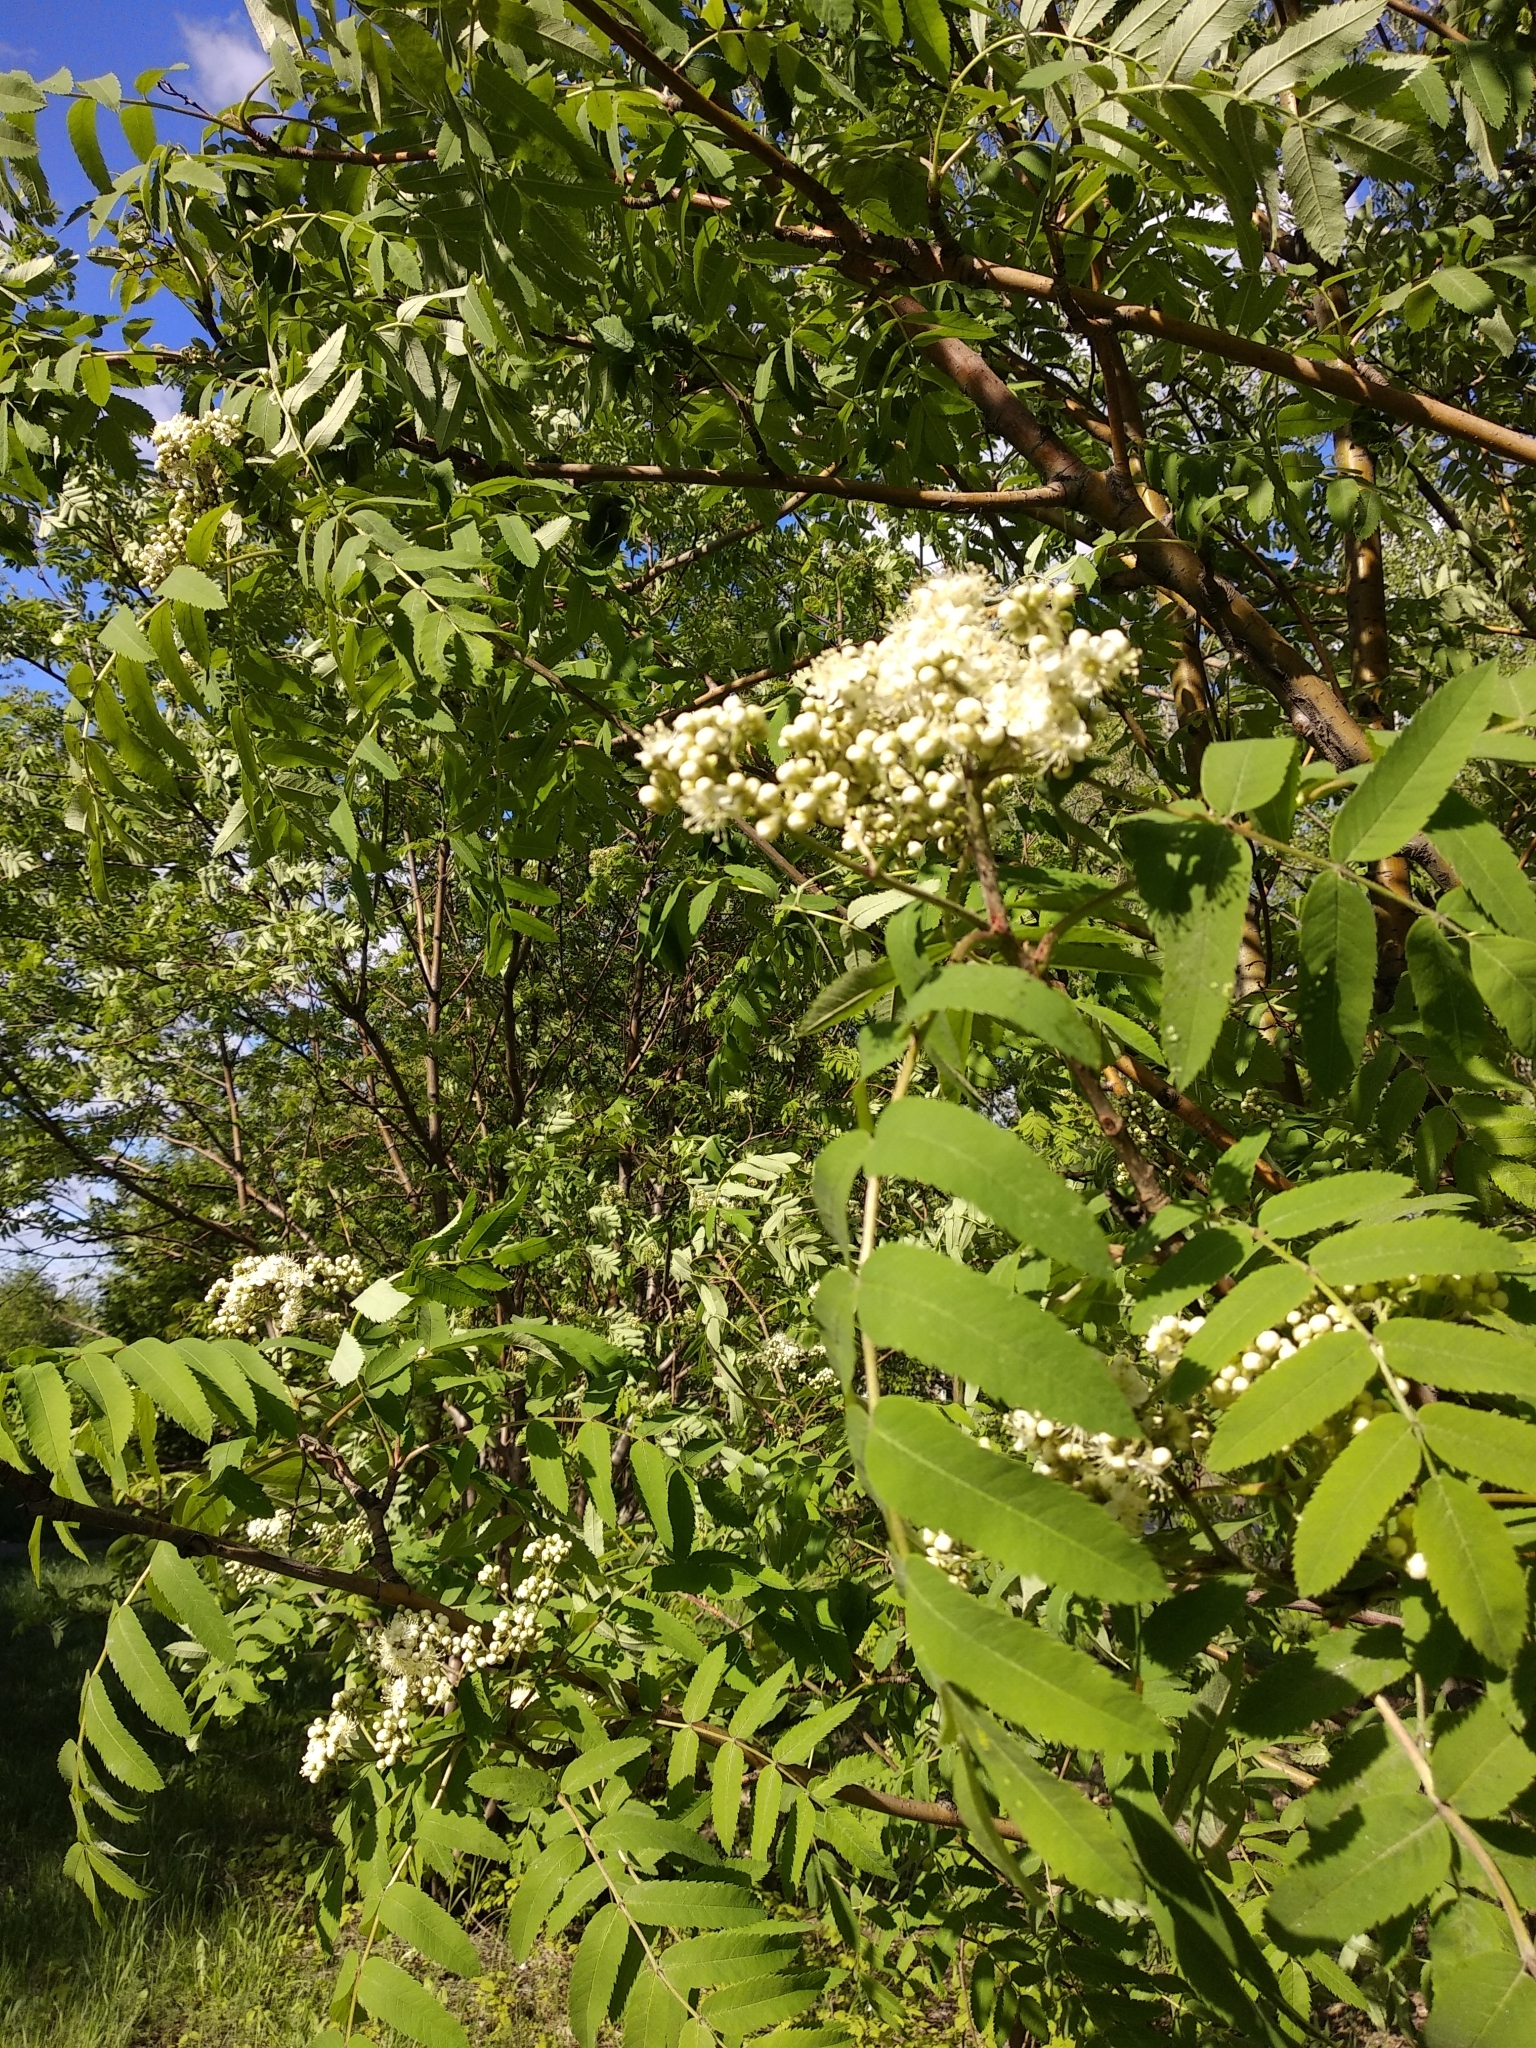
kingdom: Plantae
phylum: Tracheophyta
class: Magnoliopsida
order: Rosales
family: Rosaceae
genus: Sorbus
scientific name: Sorbus aucuparia
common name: Rowan
